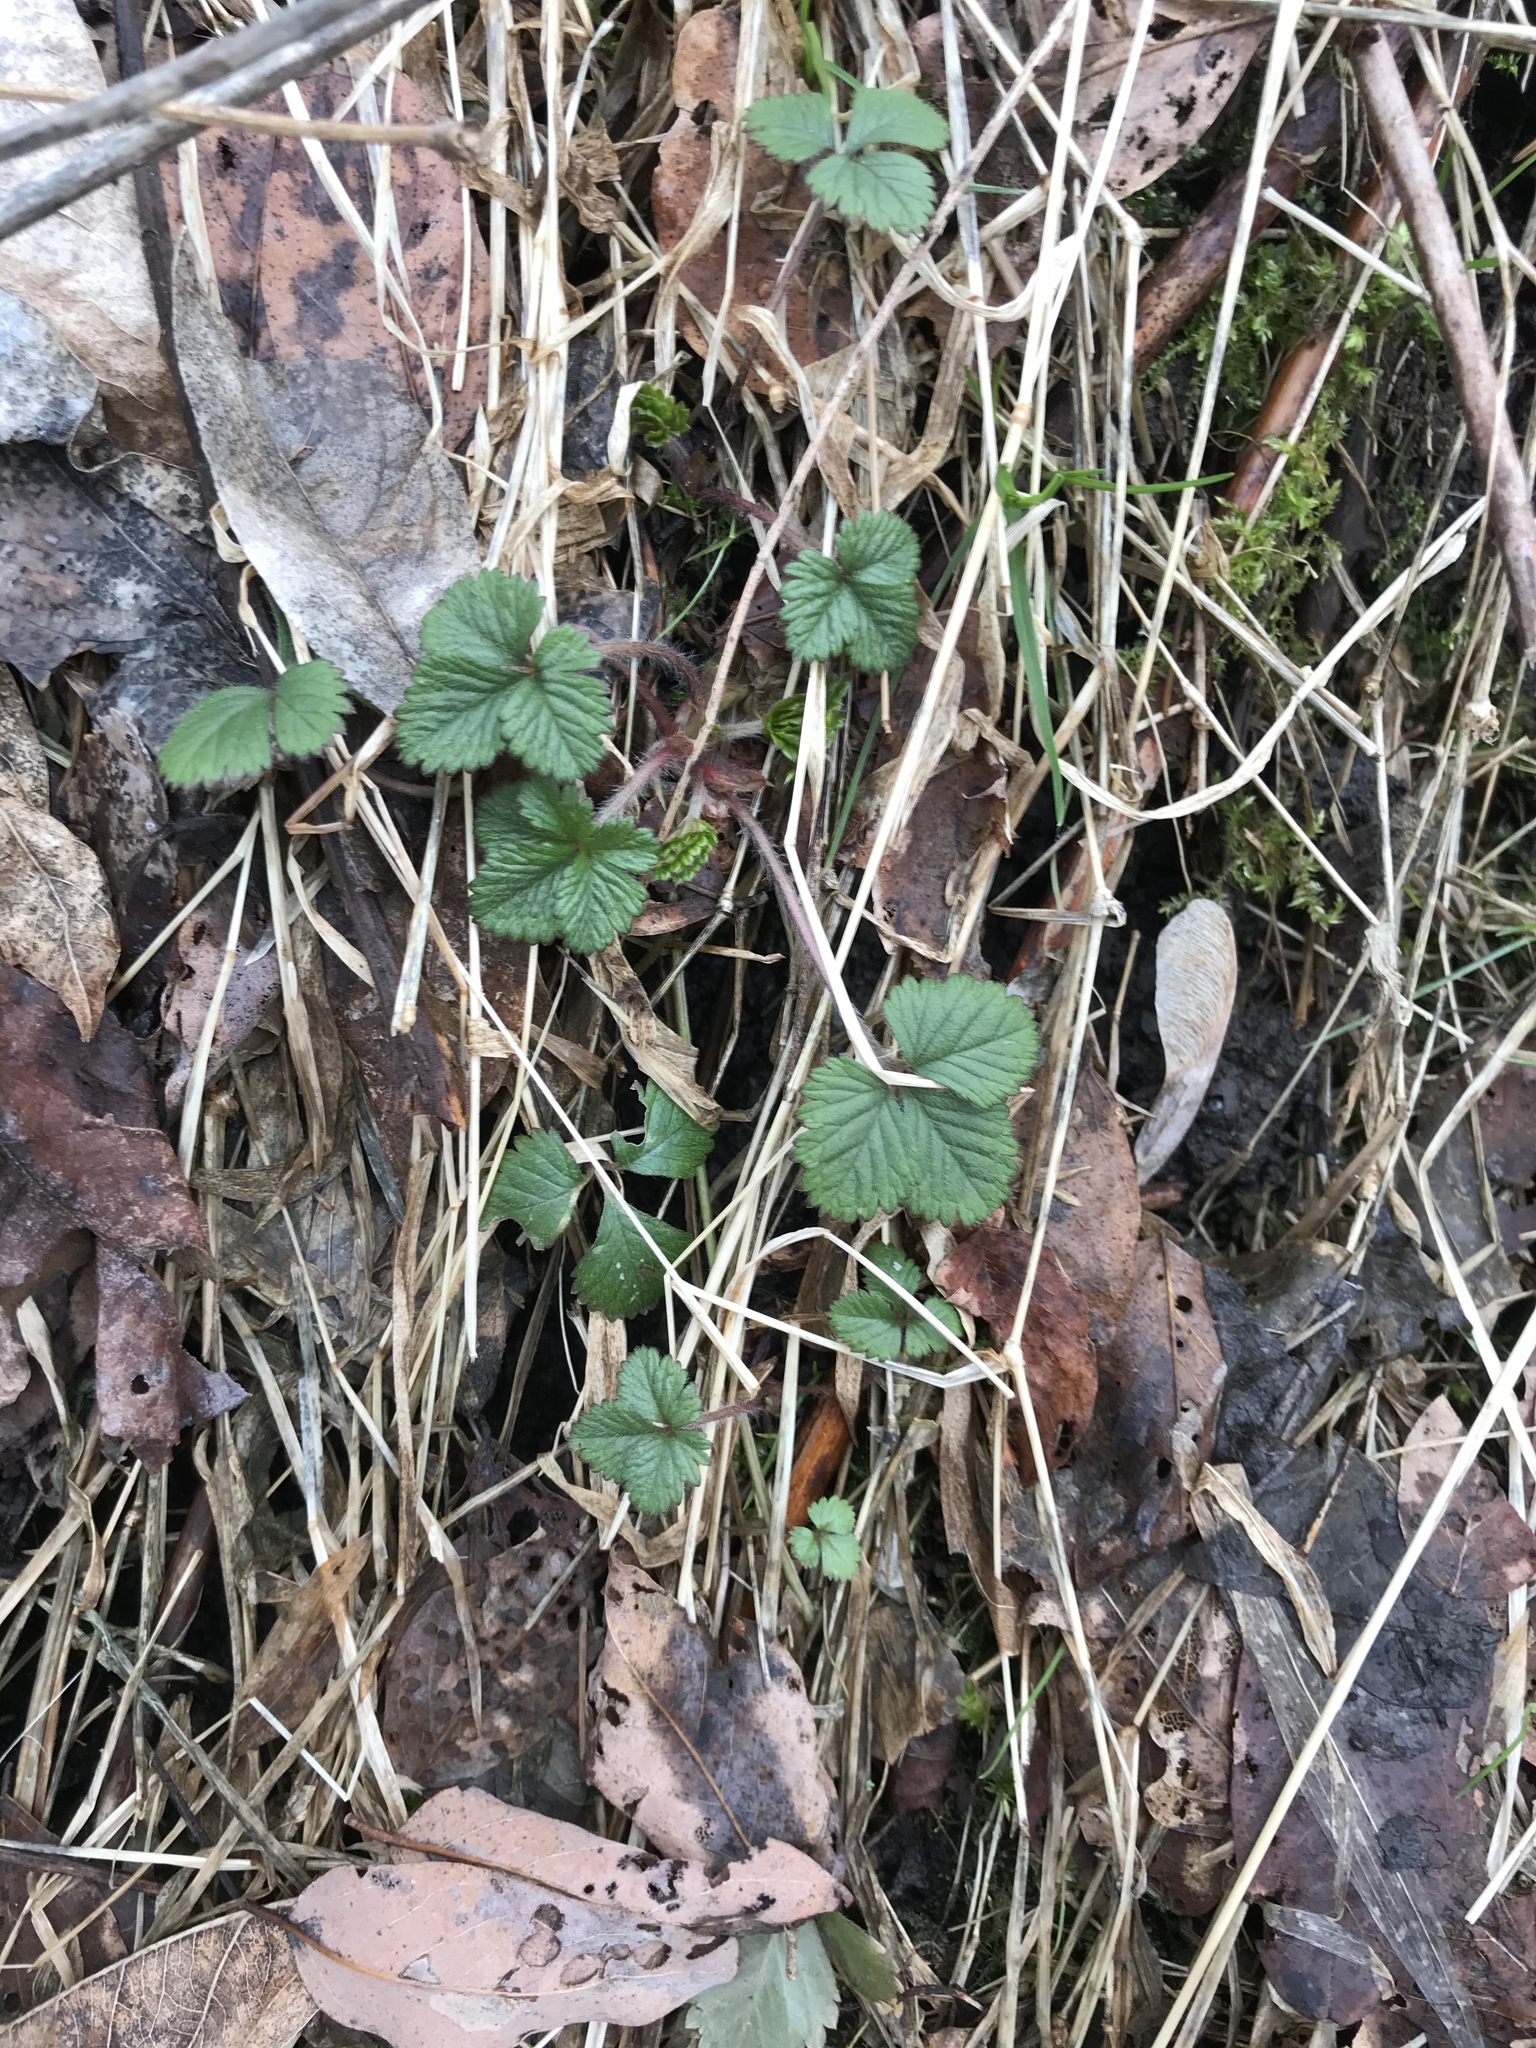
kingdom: Plantae
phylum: Tracheophyta
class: Magnoliopsida
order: Rosales
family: Rosaceae
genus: Potentilla
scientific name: Potentilla indica
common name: Yellow-flowered strawberry
